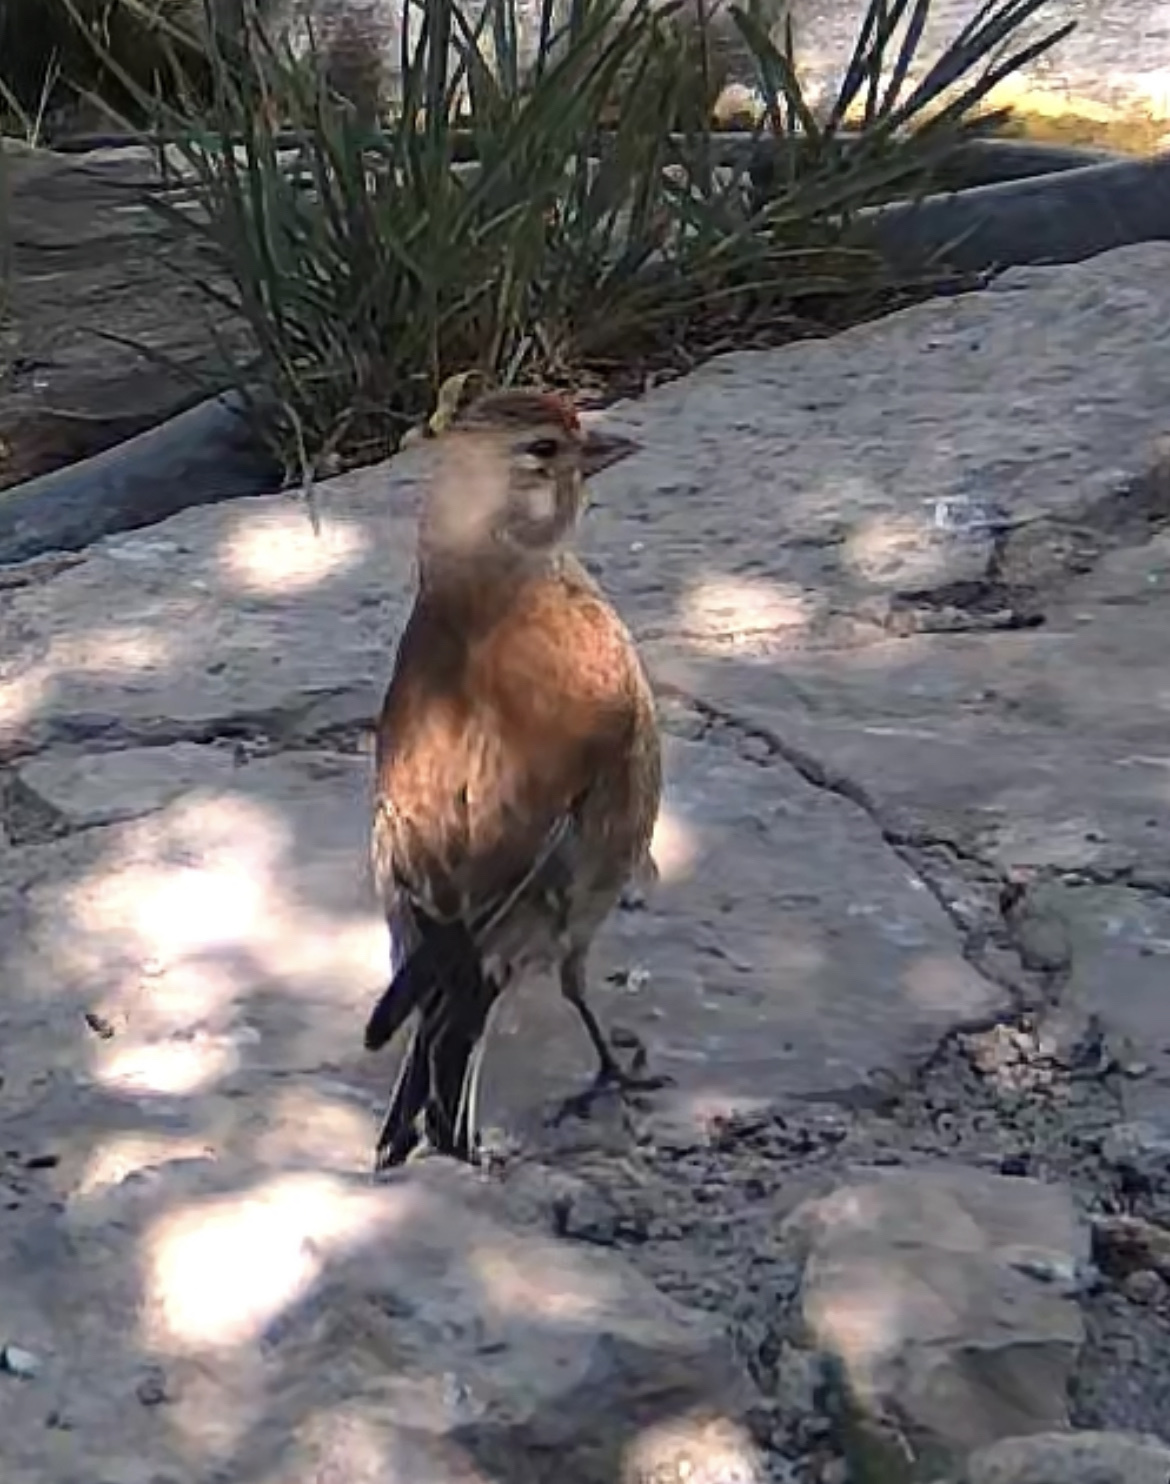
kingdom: Animalia
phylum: Chordata
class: Aves
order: Passeriformes
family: Fringillidae
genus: Linaria
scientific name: Linaria cannabina
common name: Common linnet
